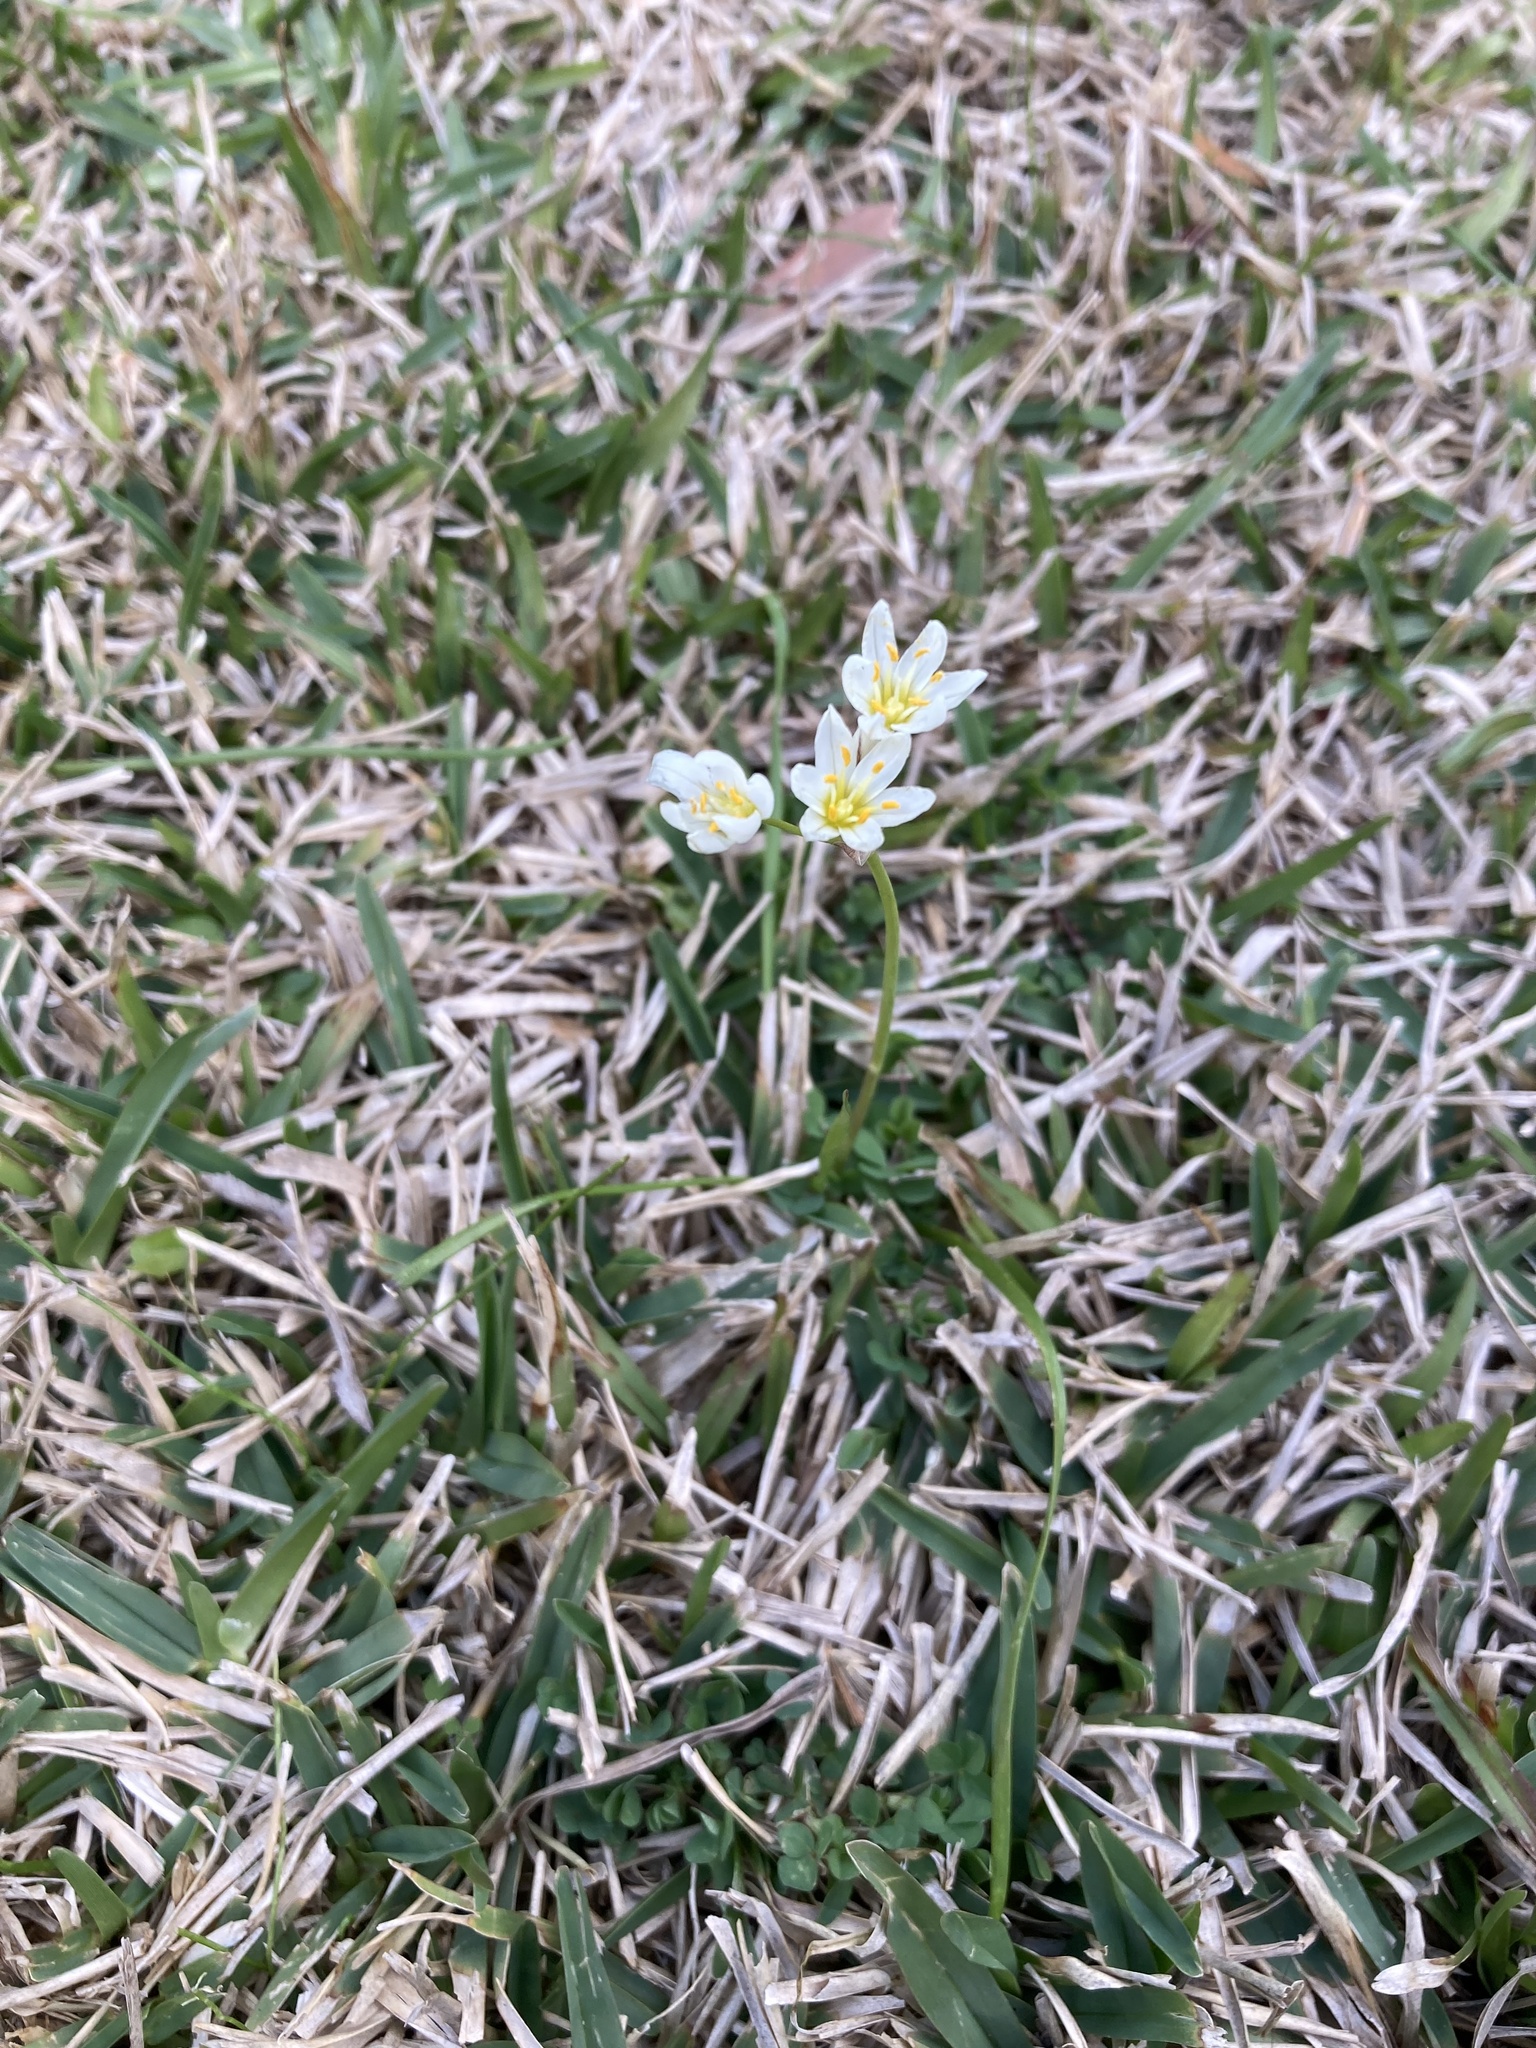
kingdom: Plantae
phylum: Tracheophyta
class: Liliopsida
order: Asparagales
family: Amaryllidaceae
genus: Nothoscordum
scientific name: Nothoscordum bivalve
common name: Crow-poison
